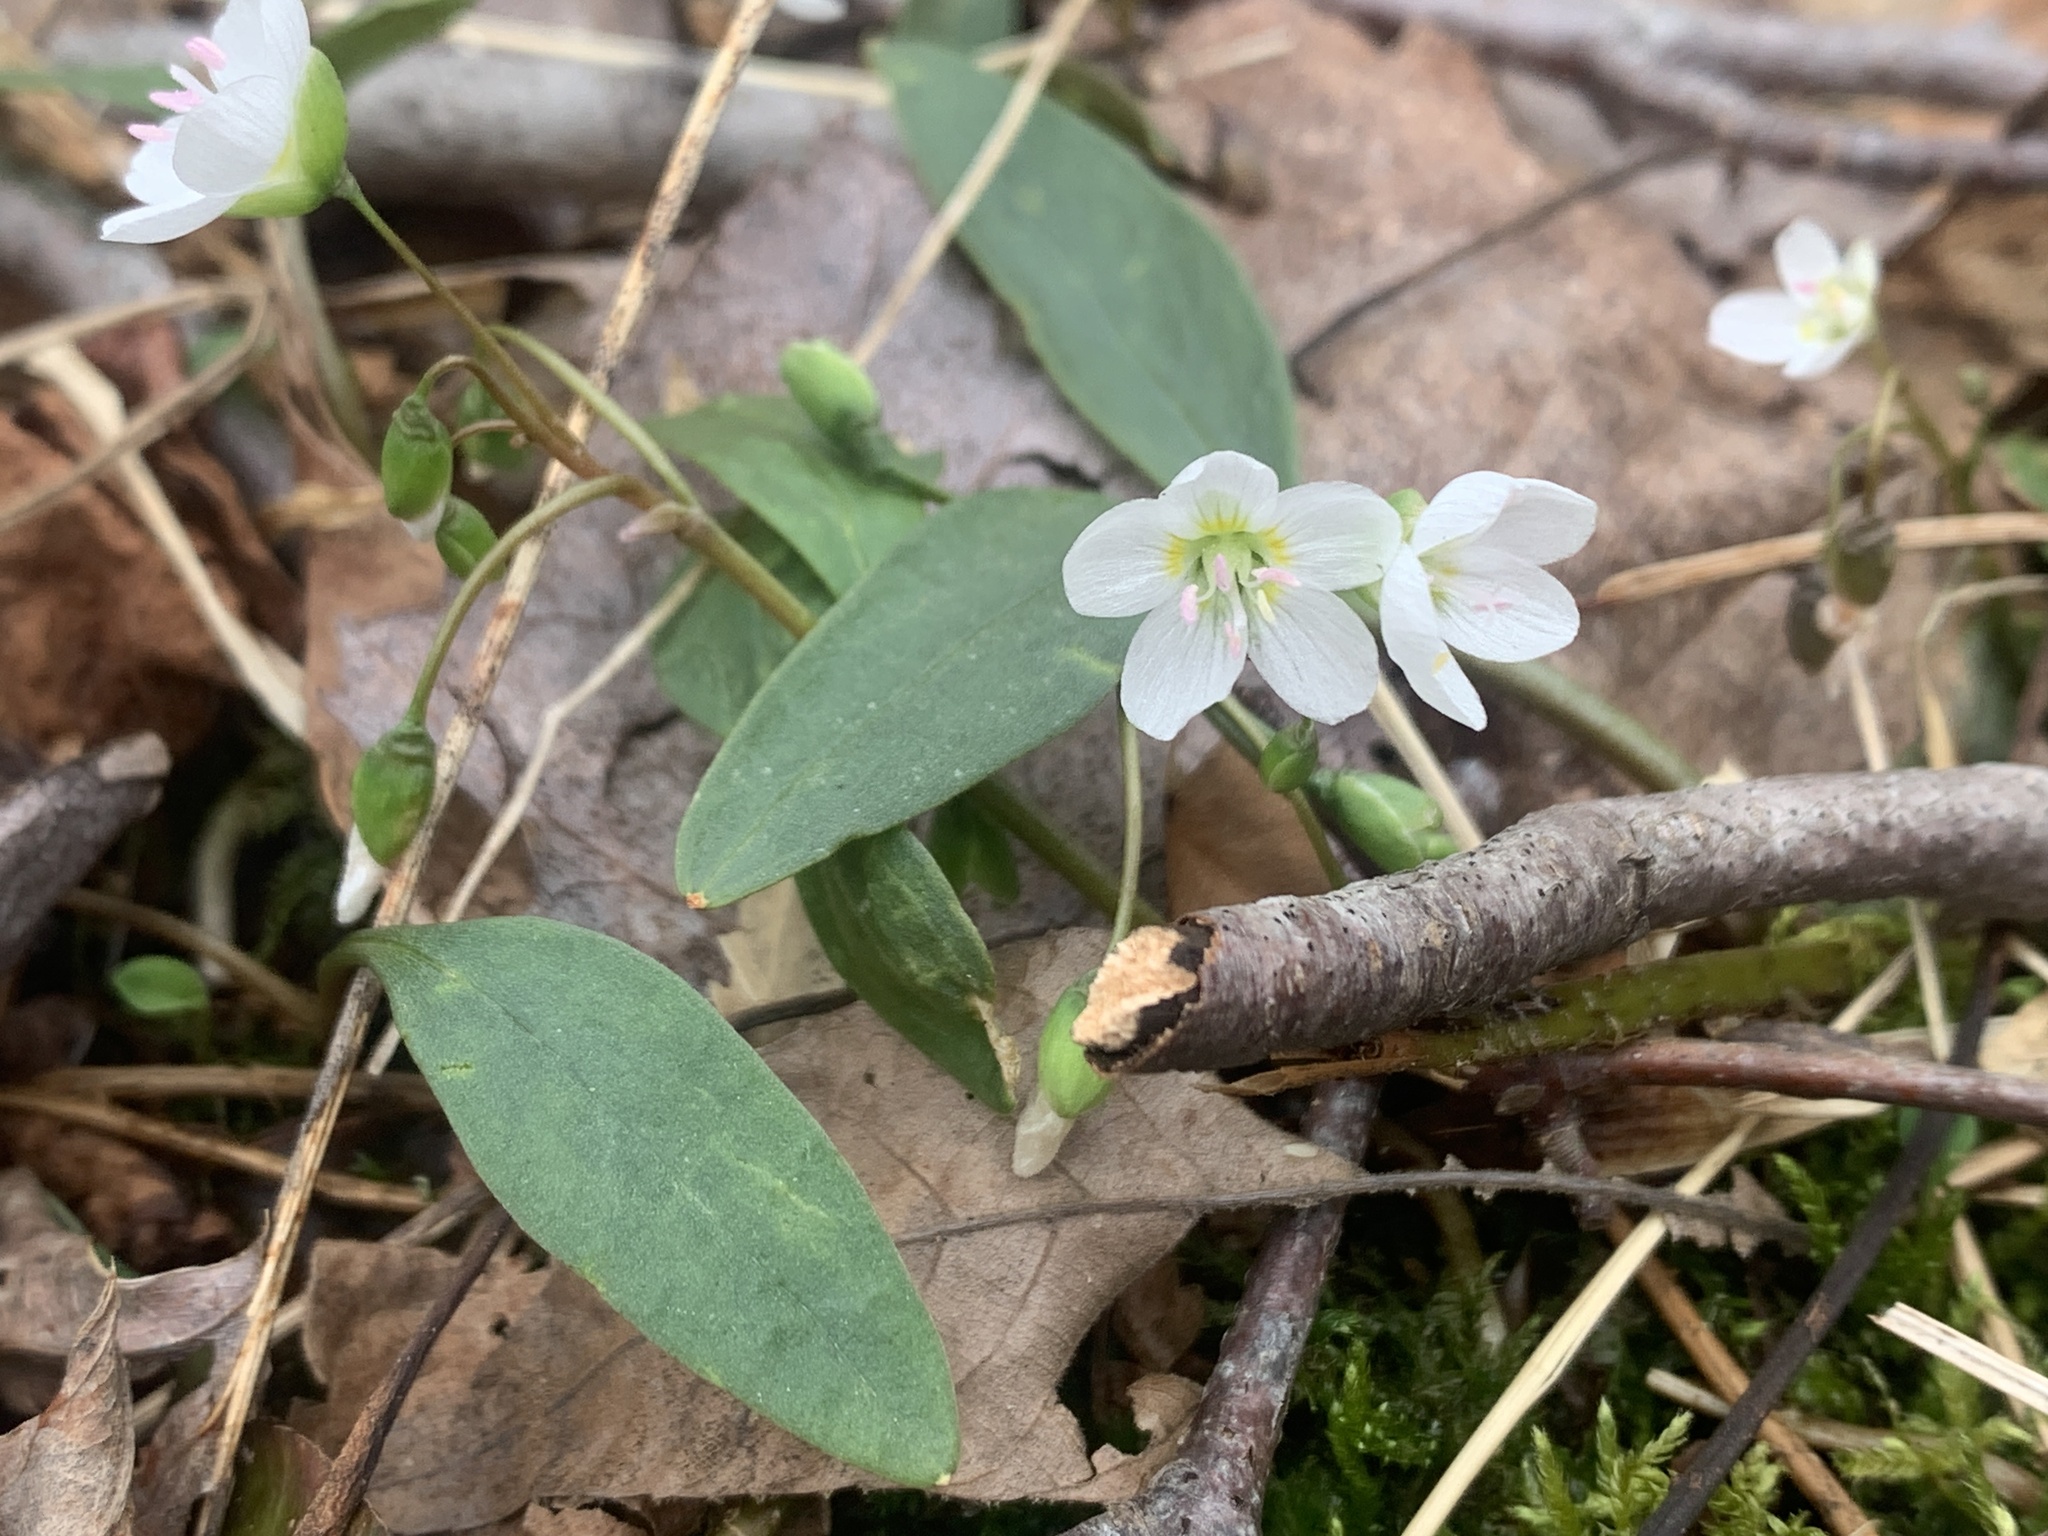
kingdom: Plantae
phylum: Tracheophyta
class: Magnoliopsida
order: Caryophyllales
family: Montiaceae
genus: Claytonia
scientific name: Claytonia caroliniana
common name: Carolina spring beauty
